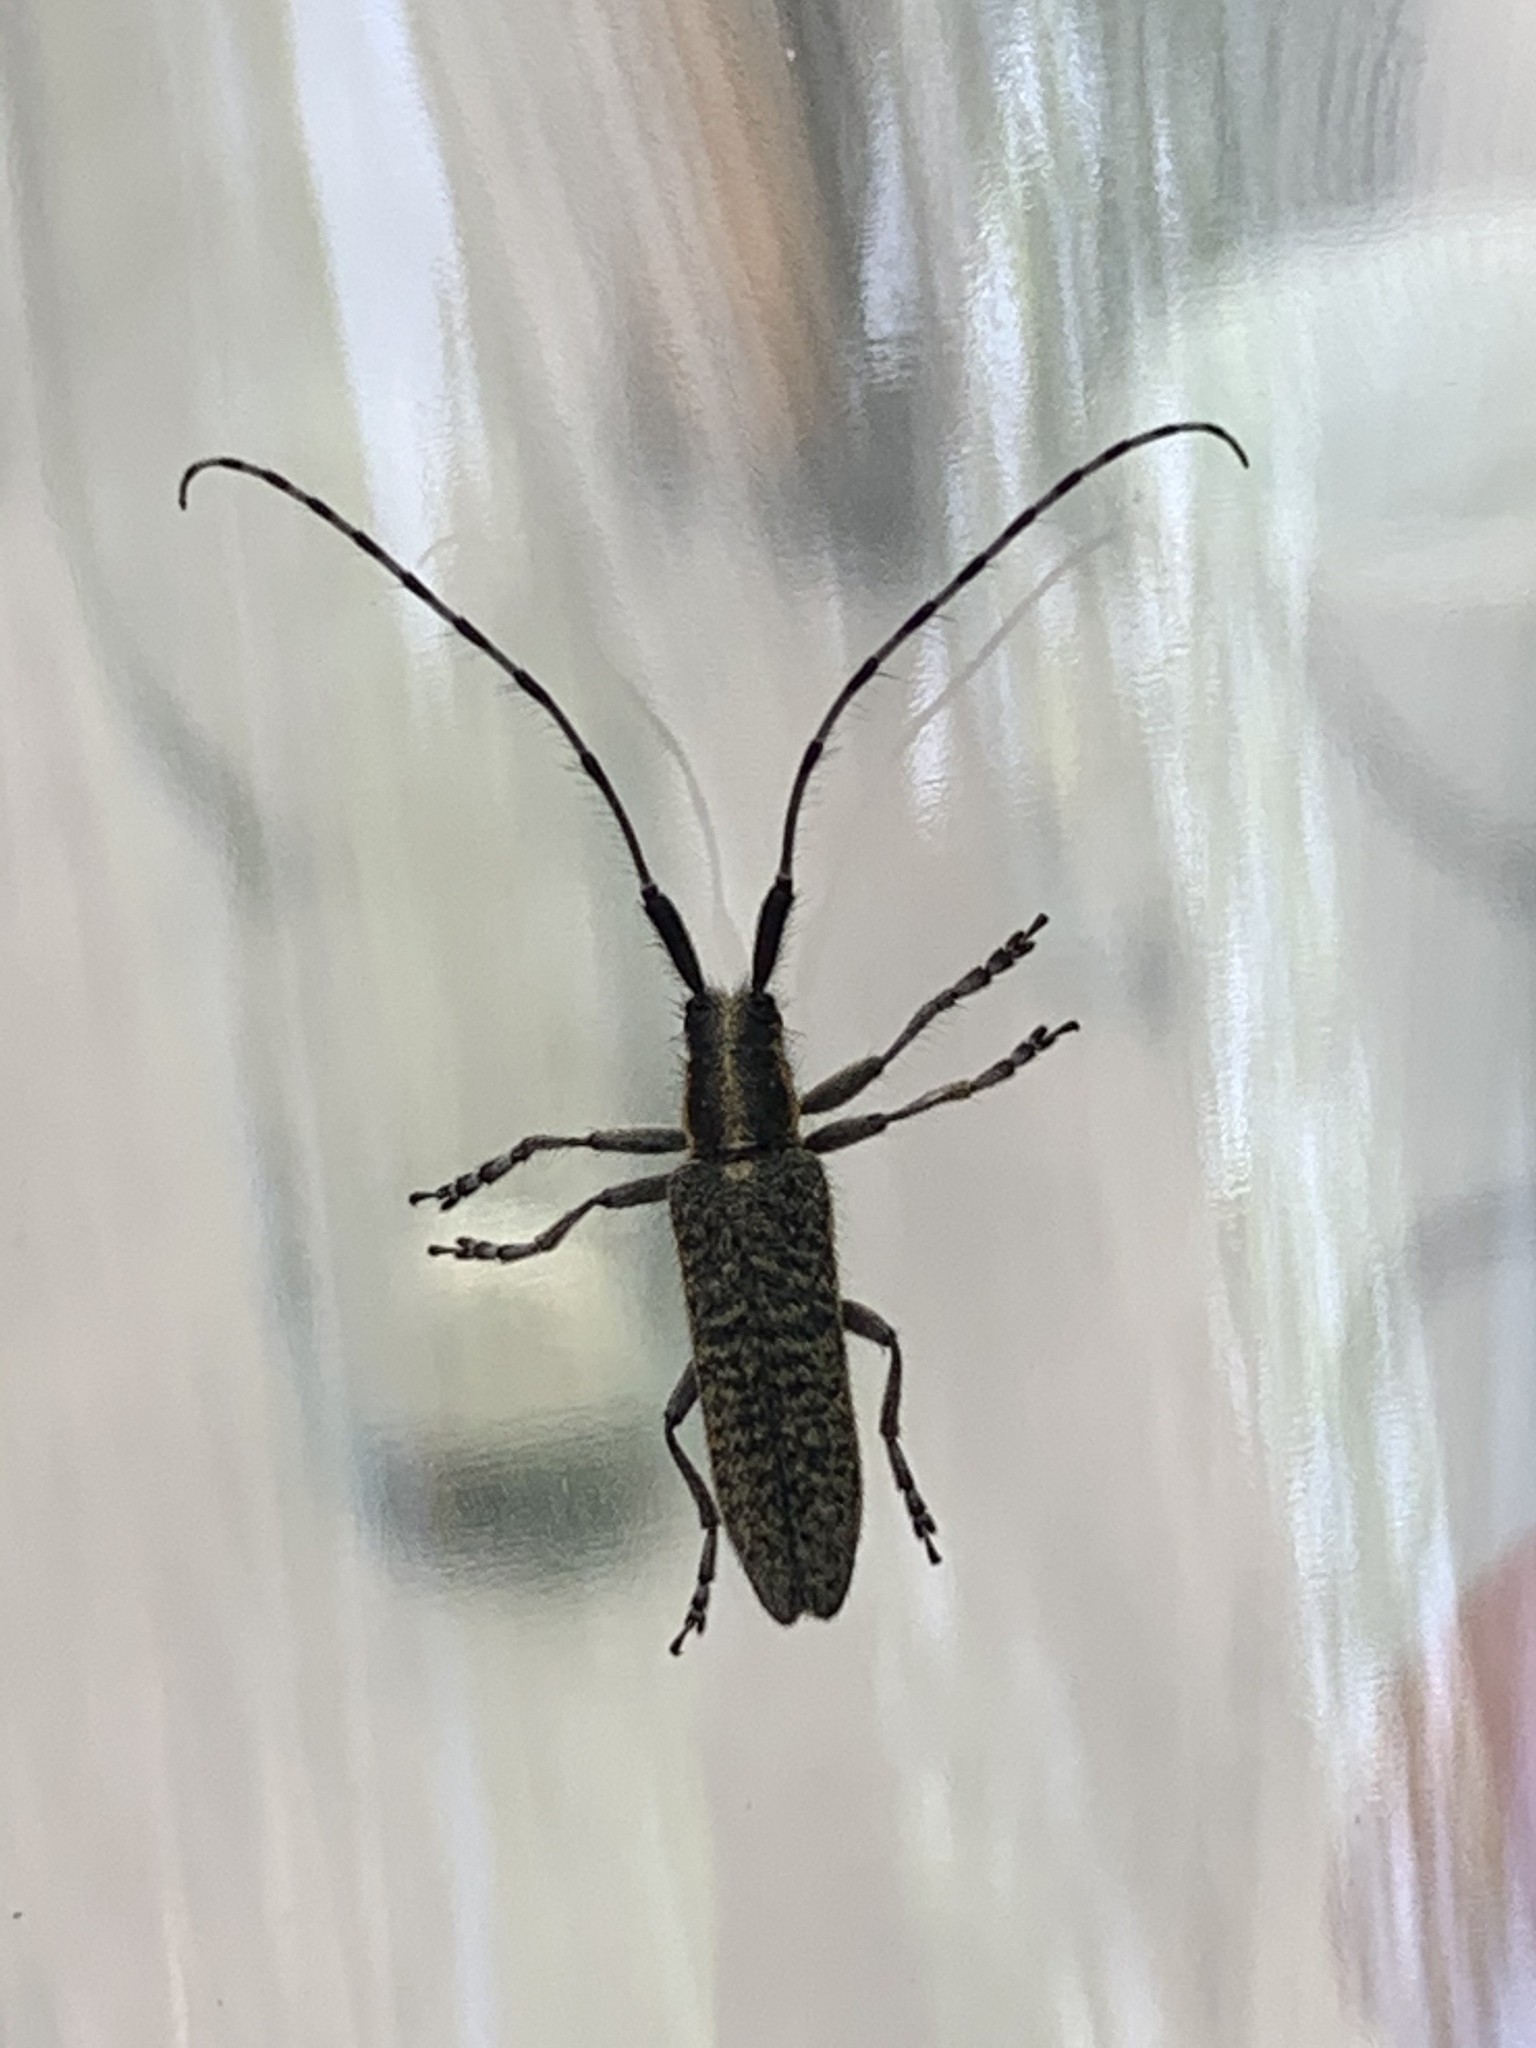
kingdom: Animalia
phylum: Arthropoda
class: Insecta
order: Coleoptera
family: Cerambycidae
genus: Agapanthia
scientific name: Agapanthia villosoviridescens
